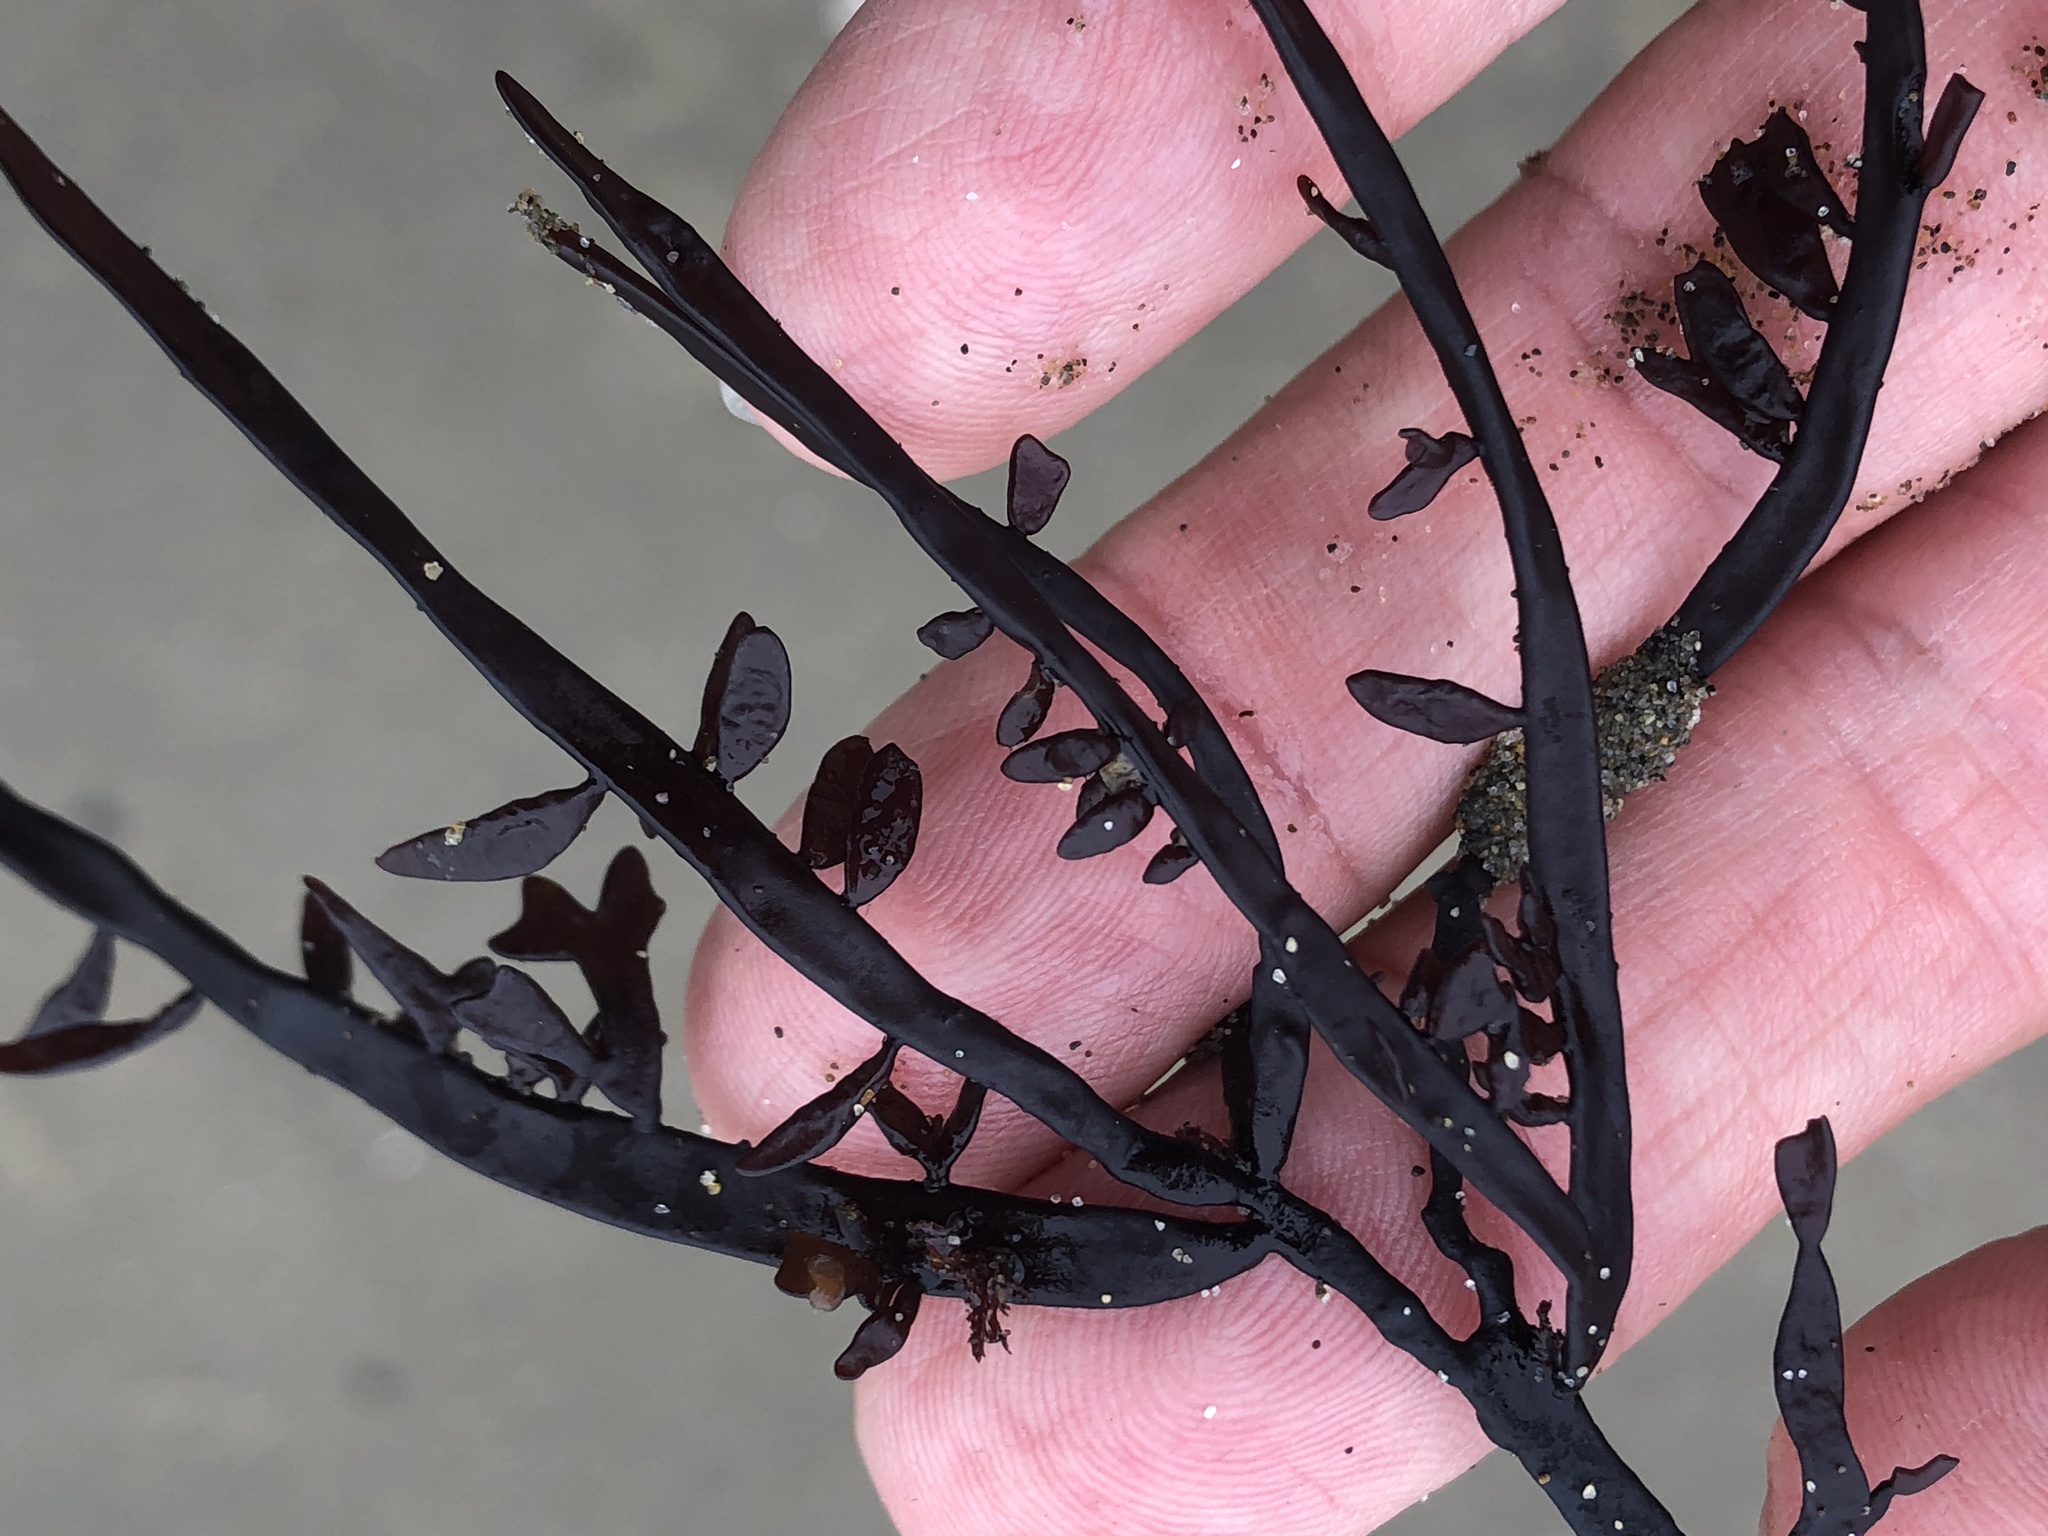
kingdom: Plantae
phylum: Rhodophyta
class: Florideophyceae
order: Halymeniales
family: Halymeniaceae
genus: Grateloupia
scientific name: Grateloupia Prionitis lanceolata
